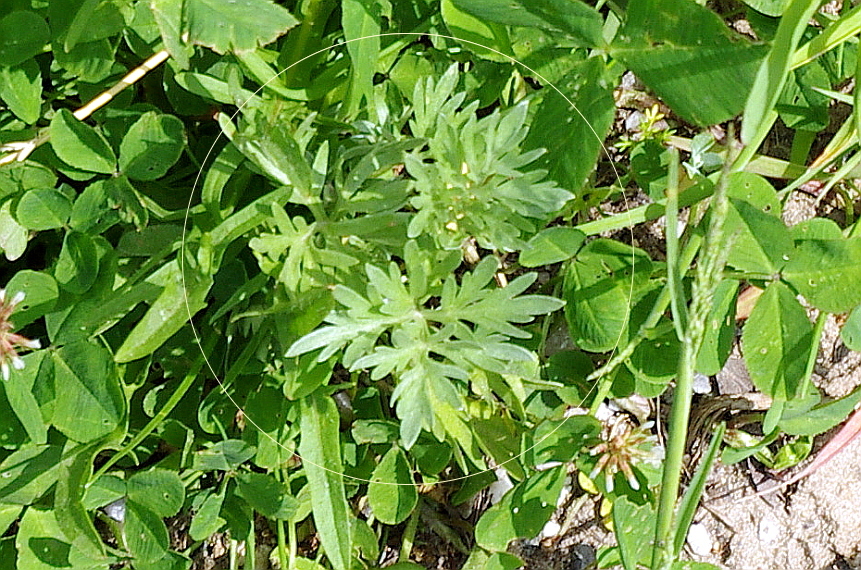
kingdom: Plantae
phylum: Tracheophyta
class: Magnoliopsida
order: Asterales
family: Asteraceae
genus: Artemisia
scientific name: Artemisia absinthium
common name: Wormwood
